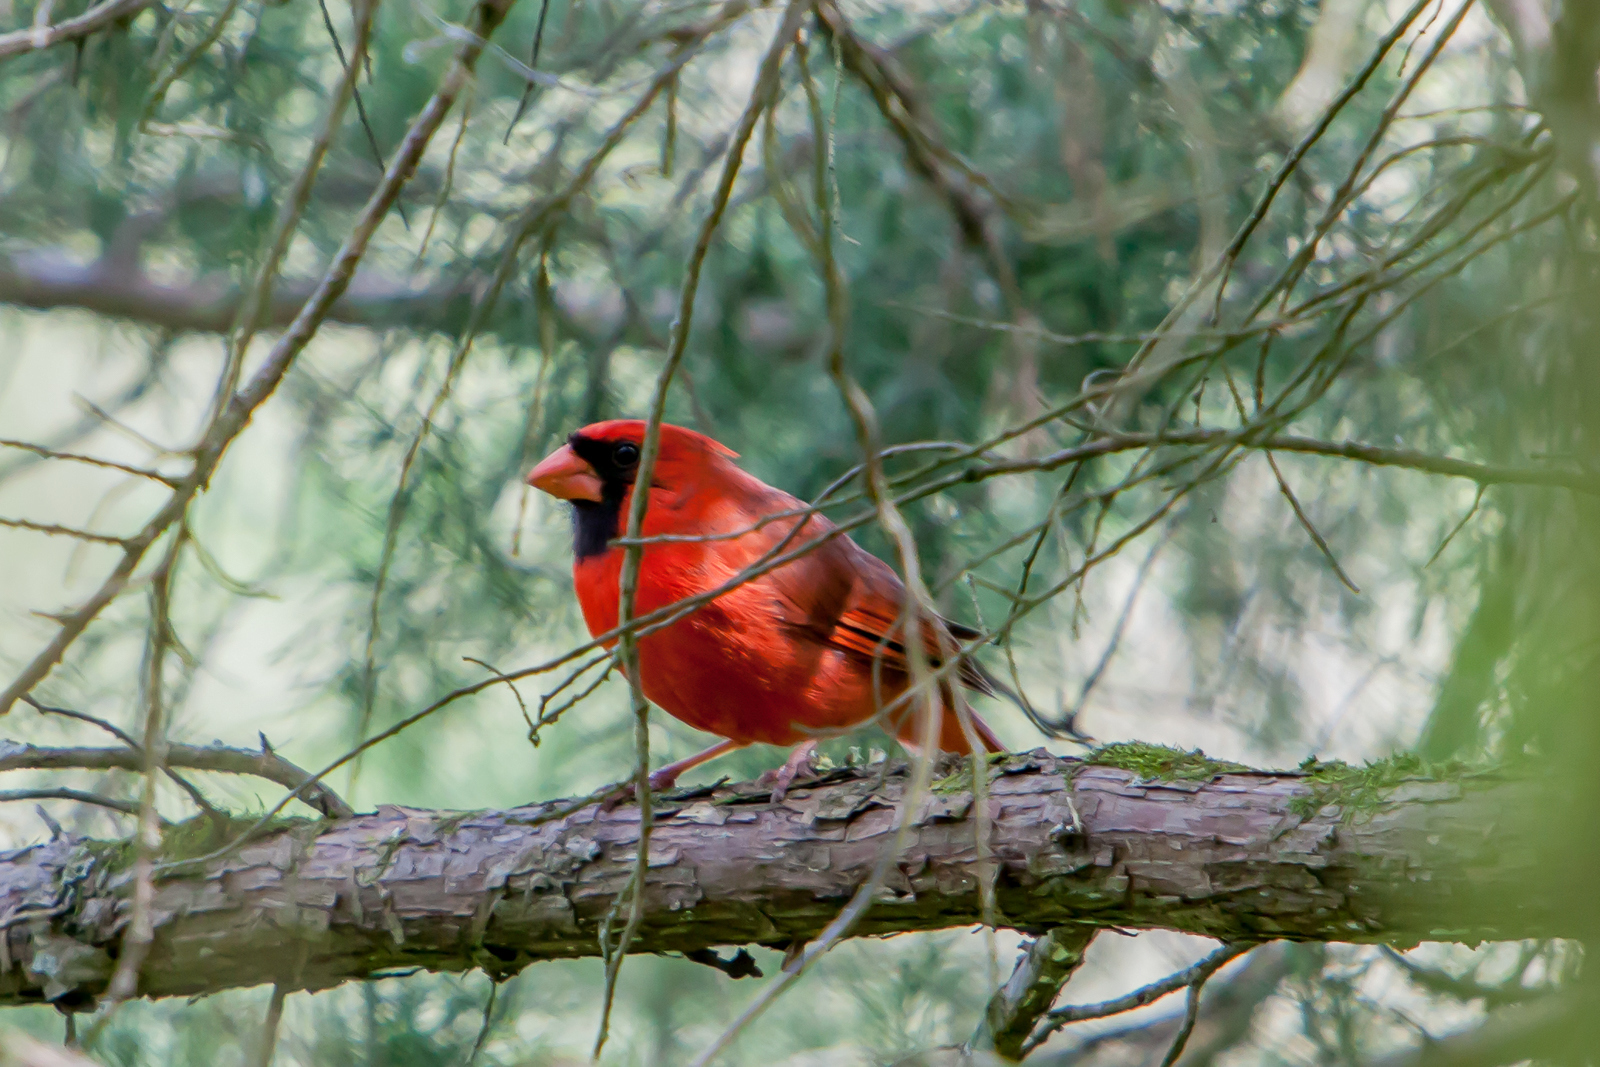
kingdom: Animalia
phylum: Chordata
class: Aves
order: Passeriformes
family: Cardinalidae
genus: Cardinalis
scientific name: Cardinalis cardinalis
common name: Northern cardinal
